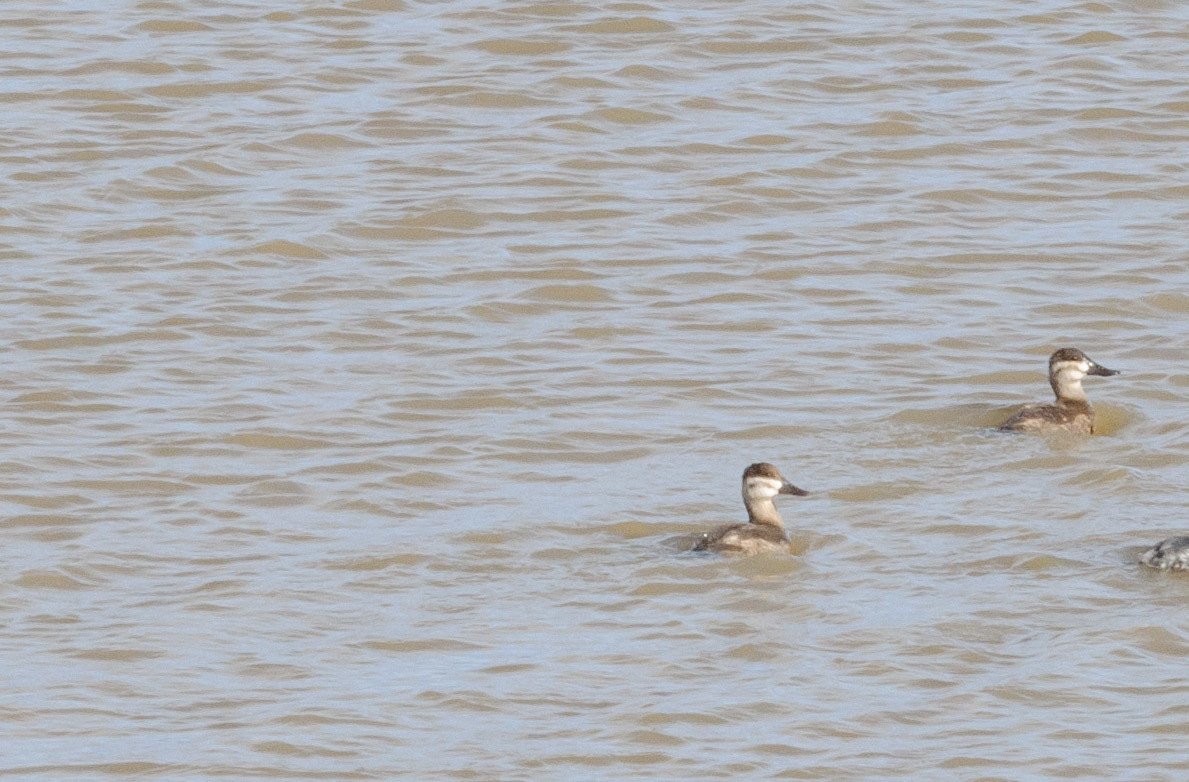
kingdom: Animalia
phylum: Chordata
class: Aves
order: Anseriformes
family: Anatidae
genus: Oxyura
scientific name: Oxyura jamaicensis
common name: Ruddy duck
